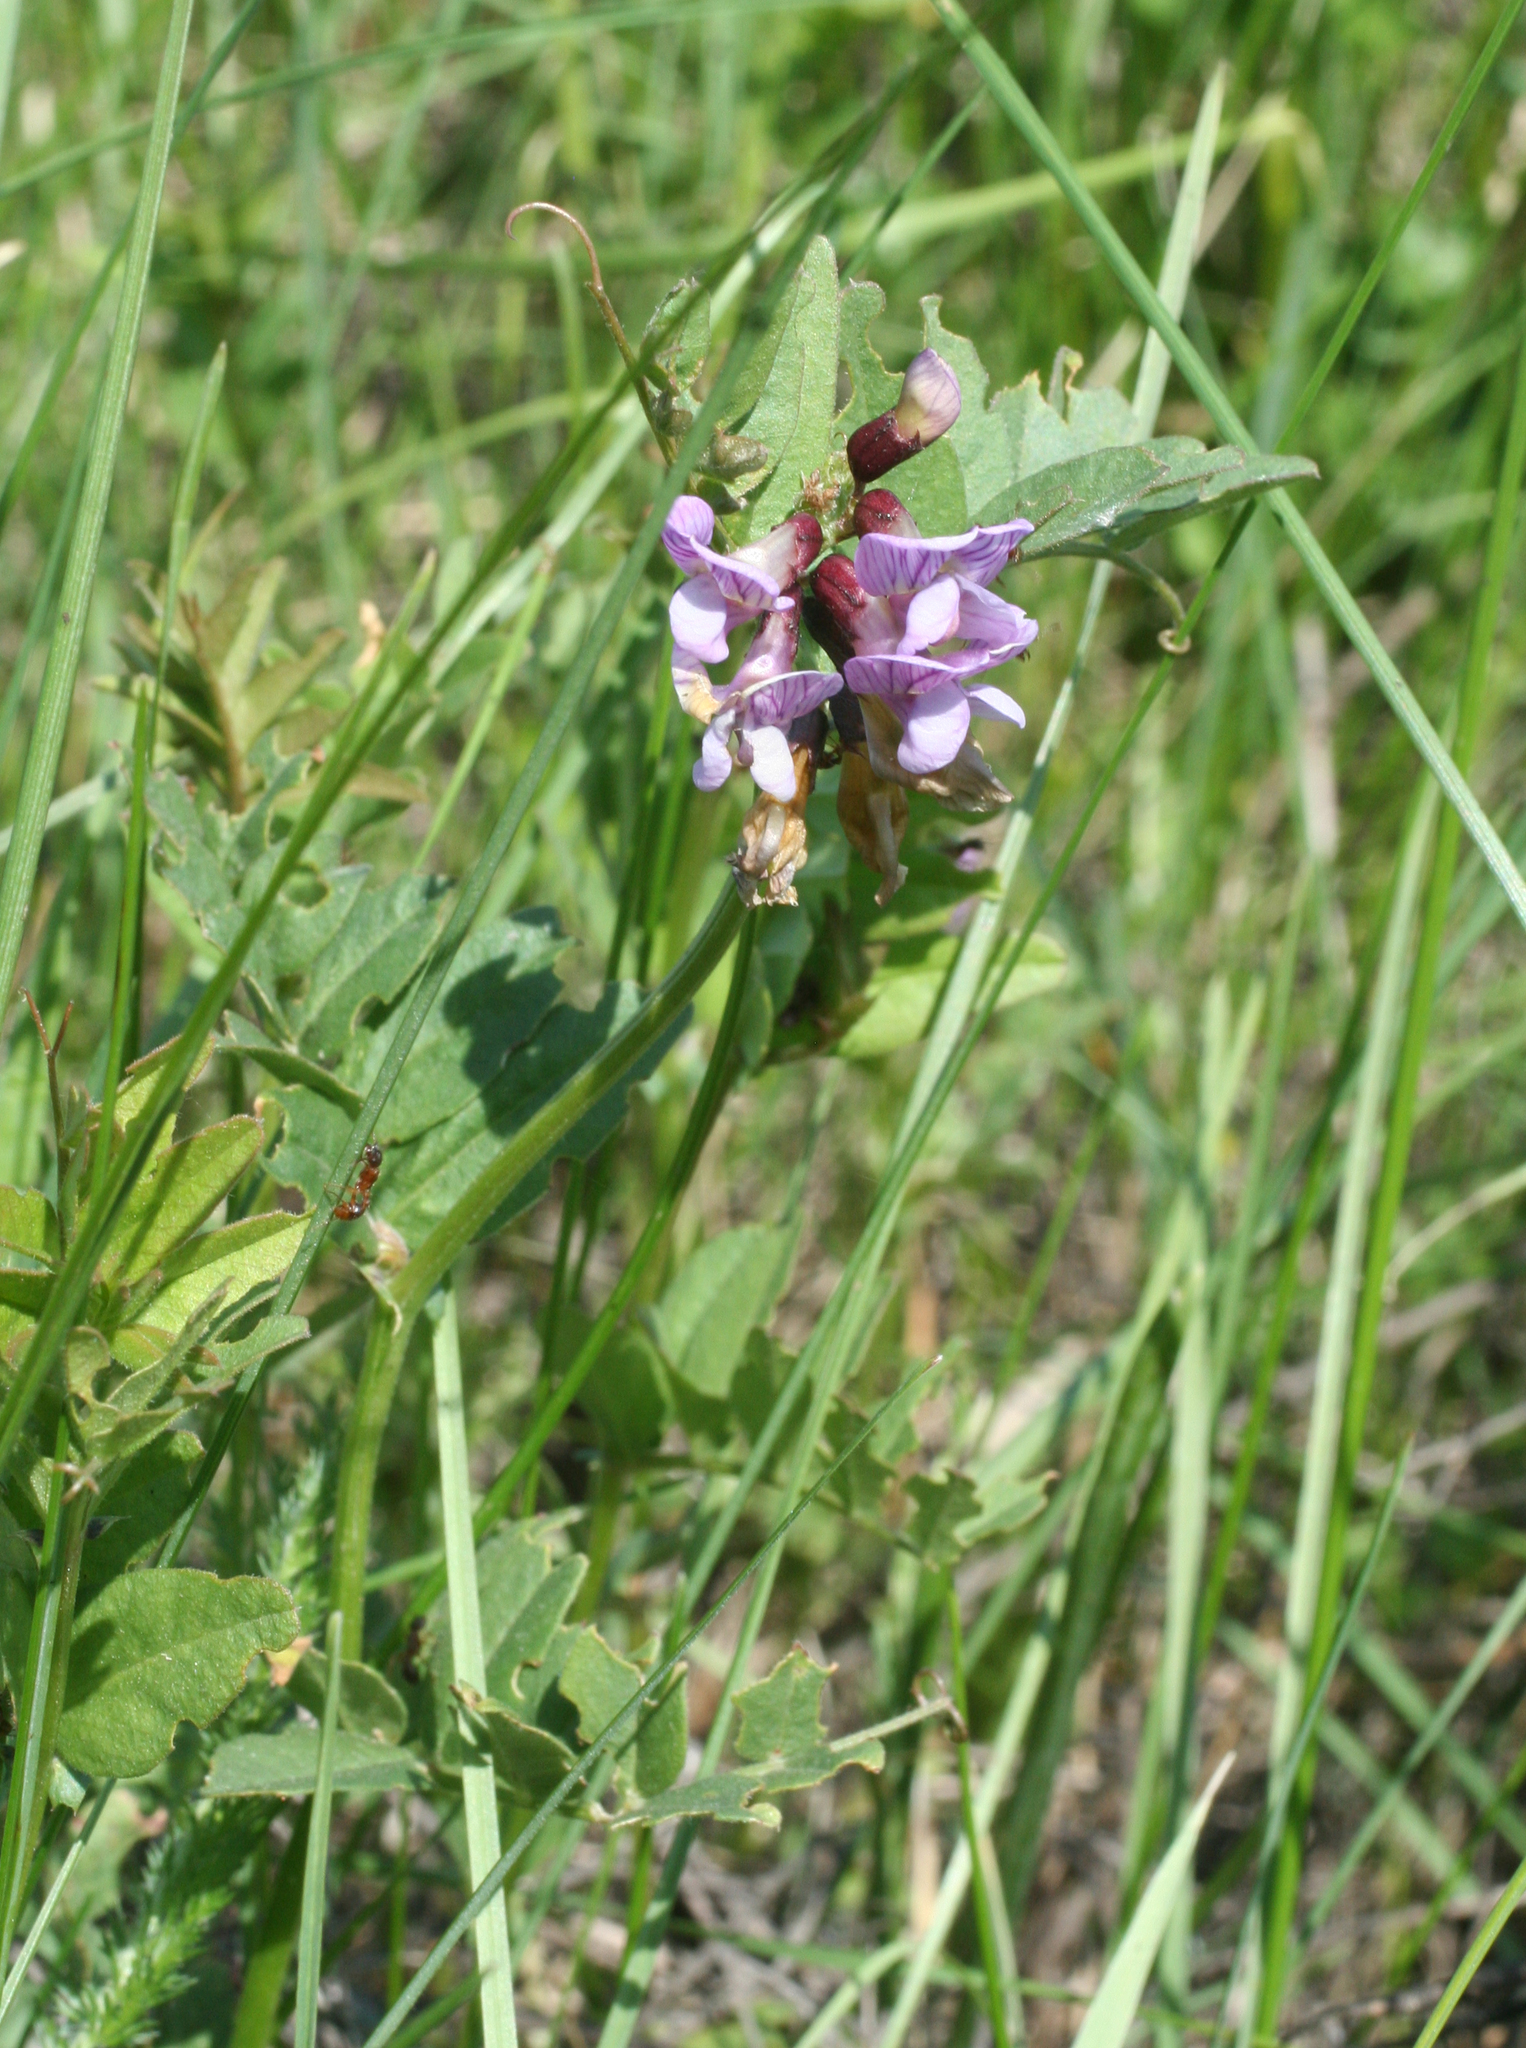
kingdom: Plantae
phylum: Tracheophyta
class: Magnoliopsida
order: Fabales
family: Fabaceae
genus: Vicia
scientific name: Vicia sepium
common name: Bush vetch
